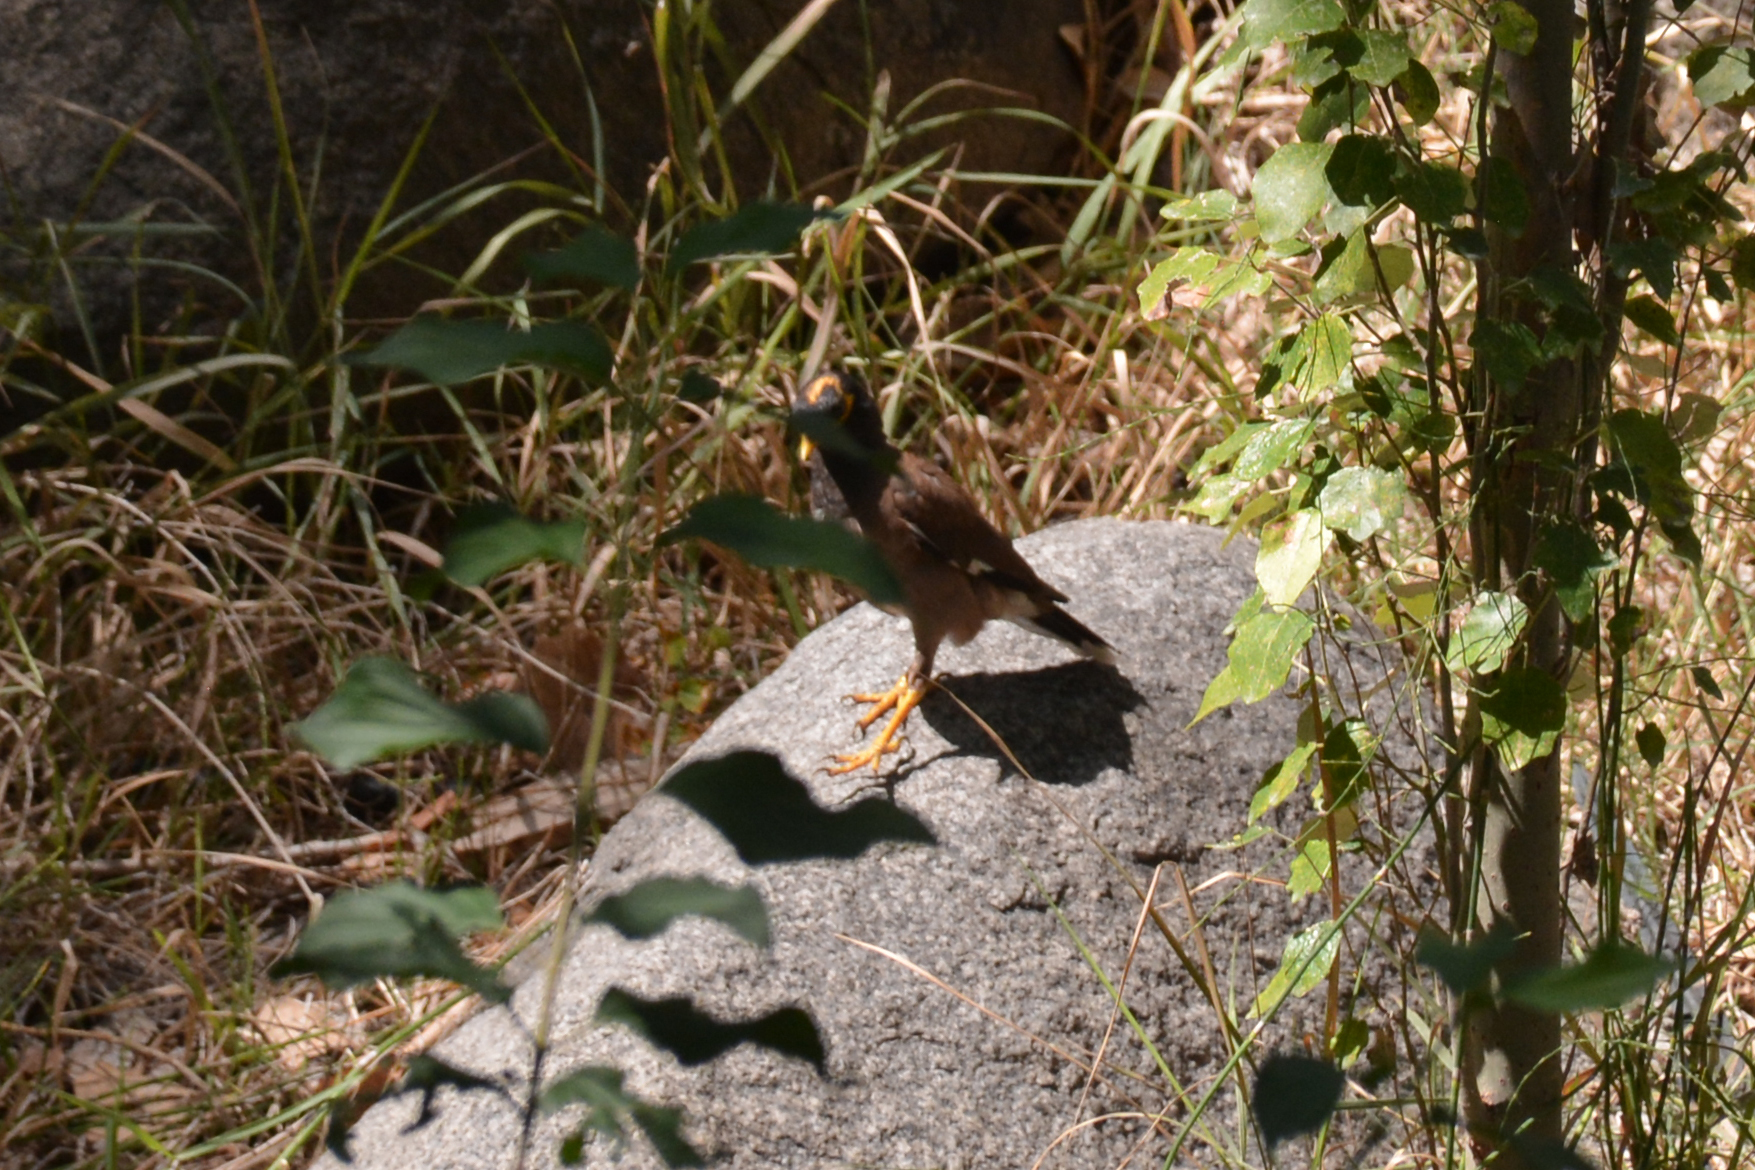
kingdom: Animalia
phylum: Chordata
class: Aves
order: Passeriformes
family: Sturnidae
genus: Acridotheres
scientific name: Acridotheres tristis
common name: Common myna
